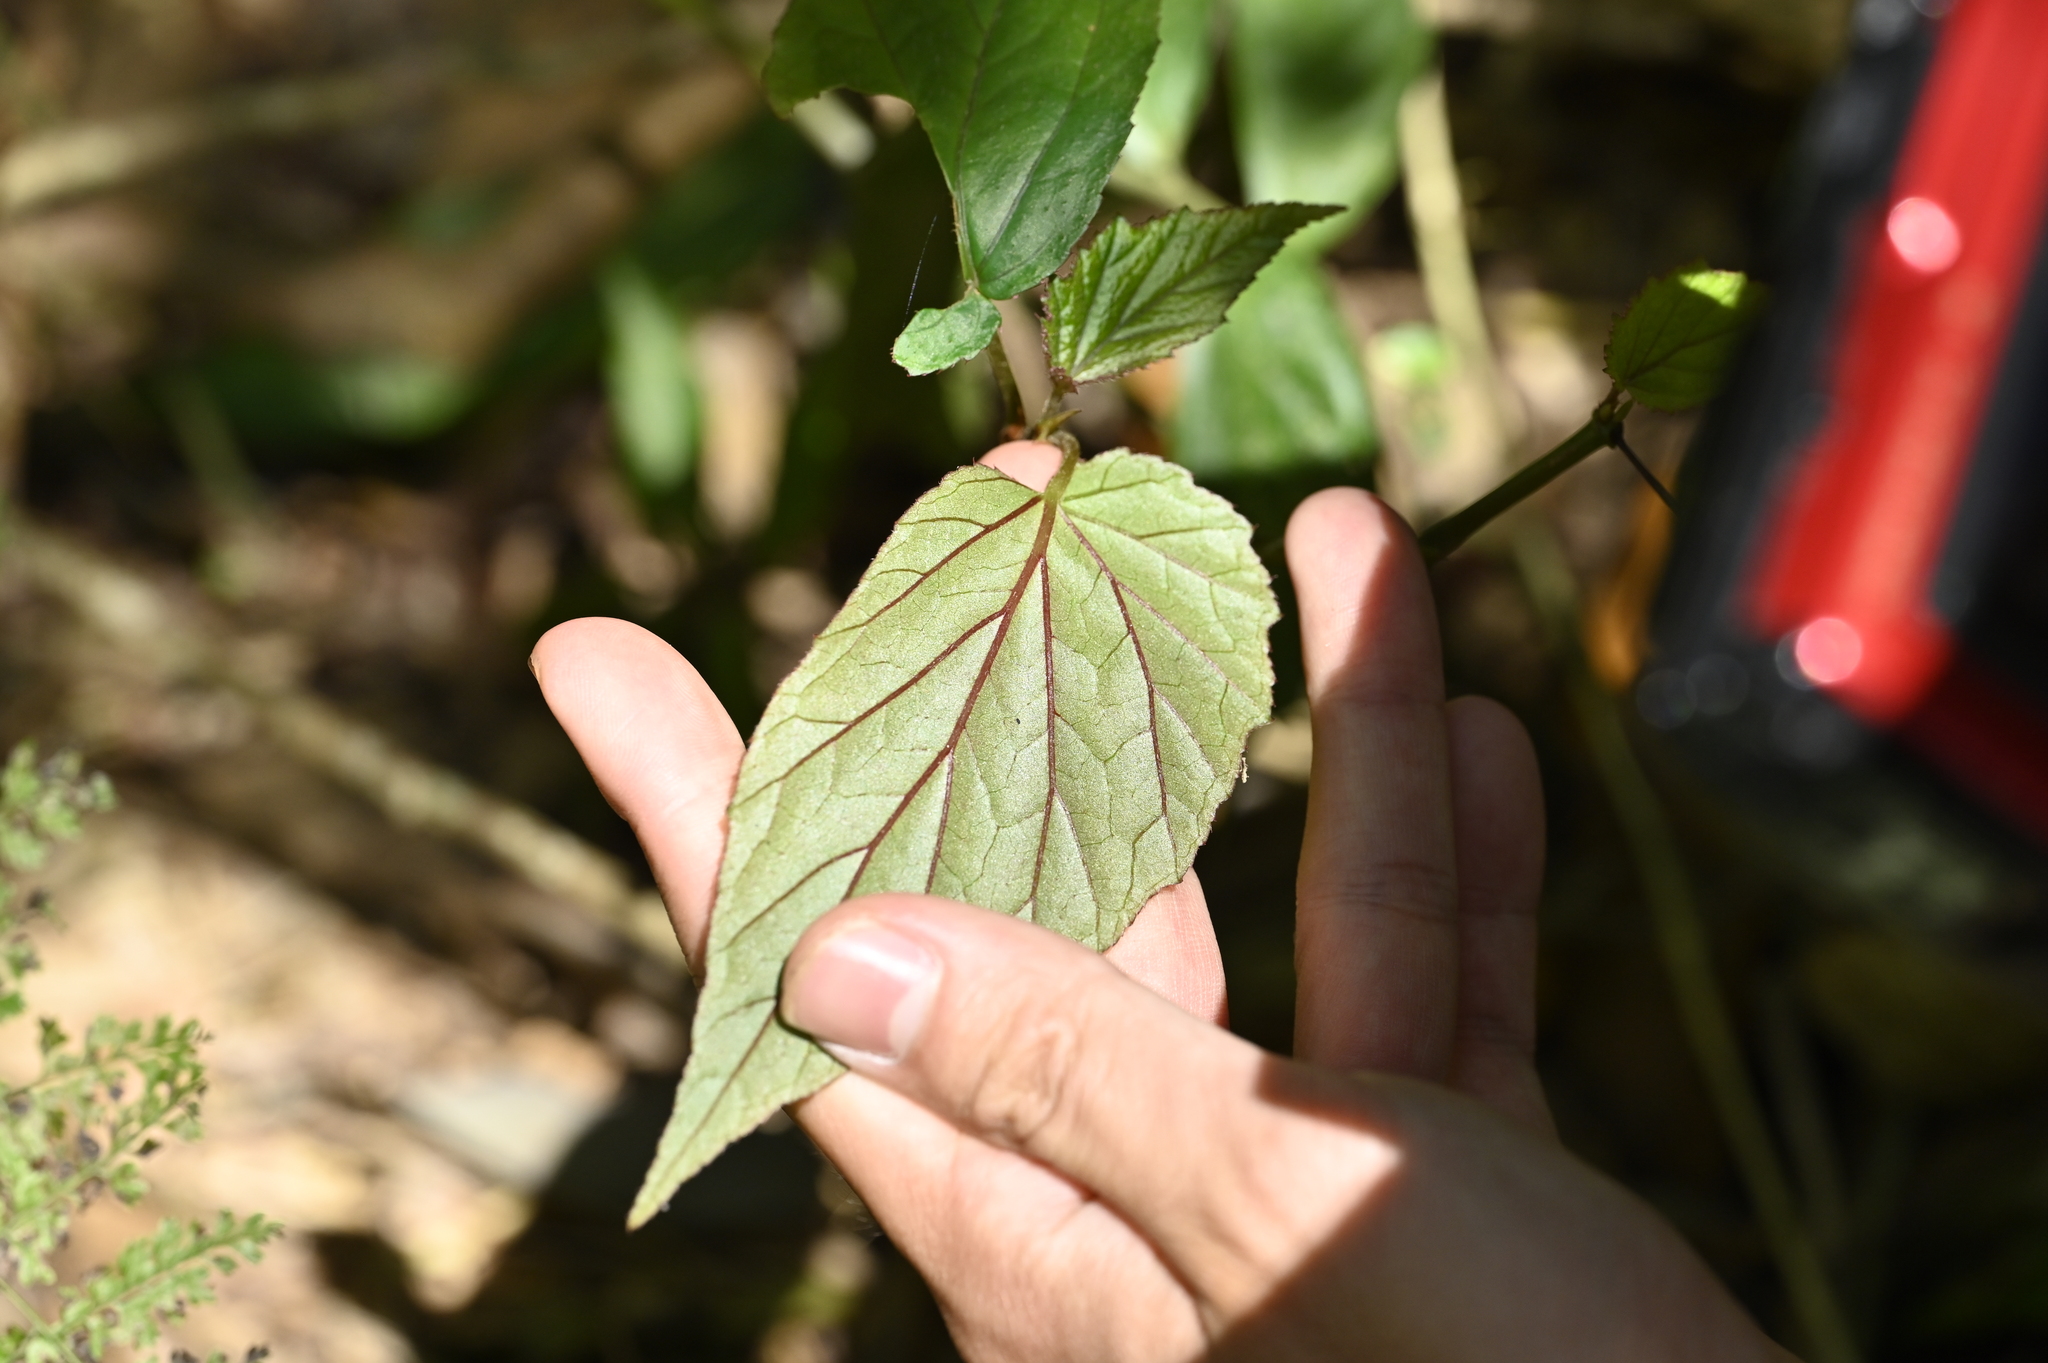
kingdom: Plantae
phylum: Tracheophyta
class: Magnoliopsida
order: Cucurbitales
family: Begoniaceae
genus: Begonia
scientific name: Begonia buimontana
